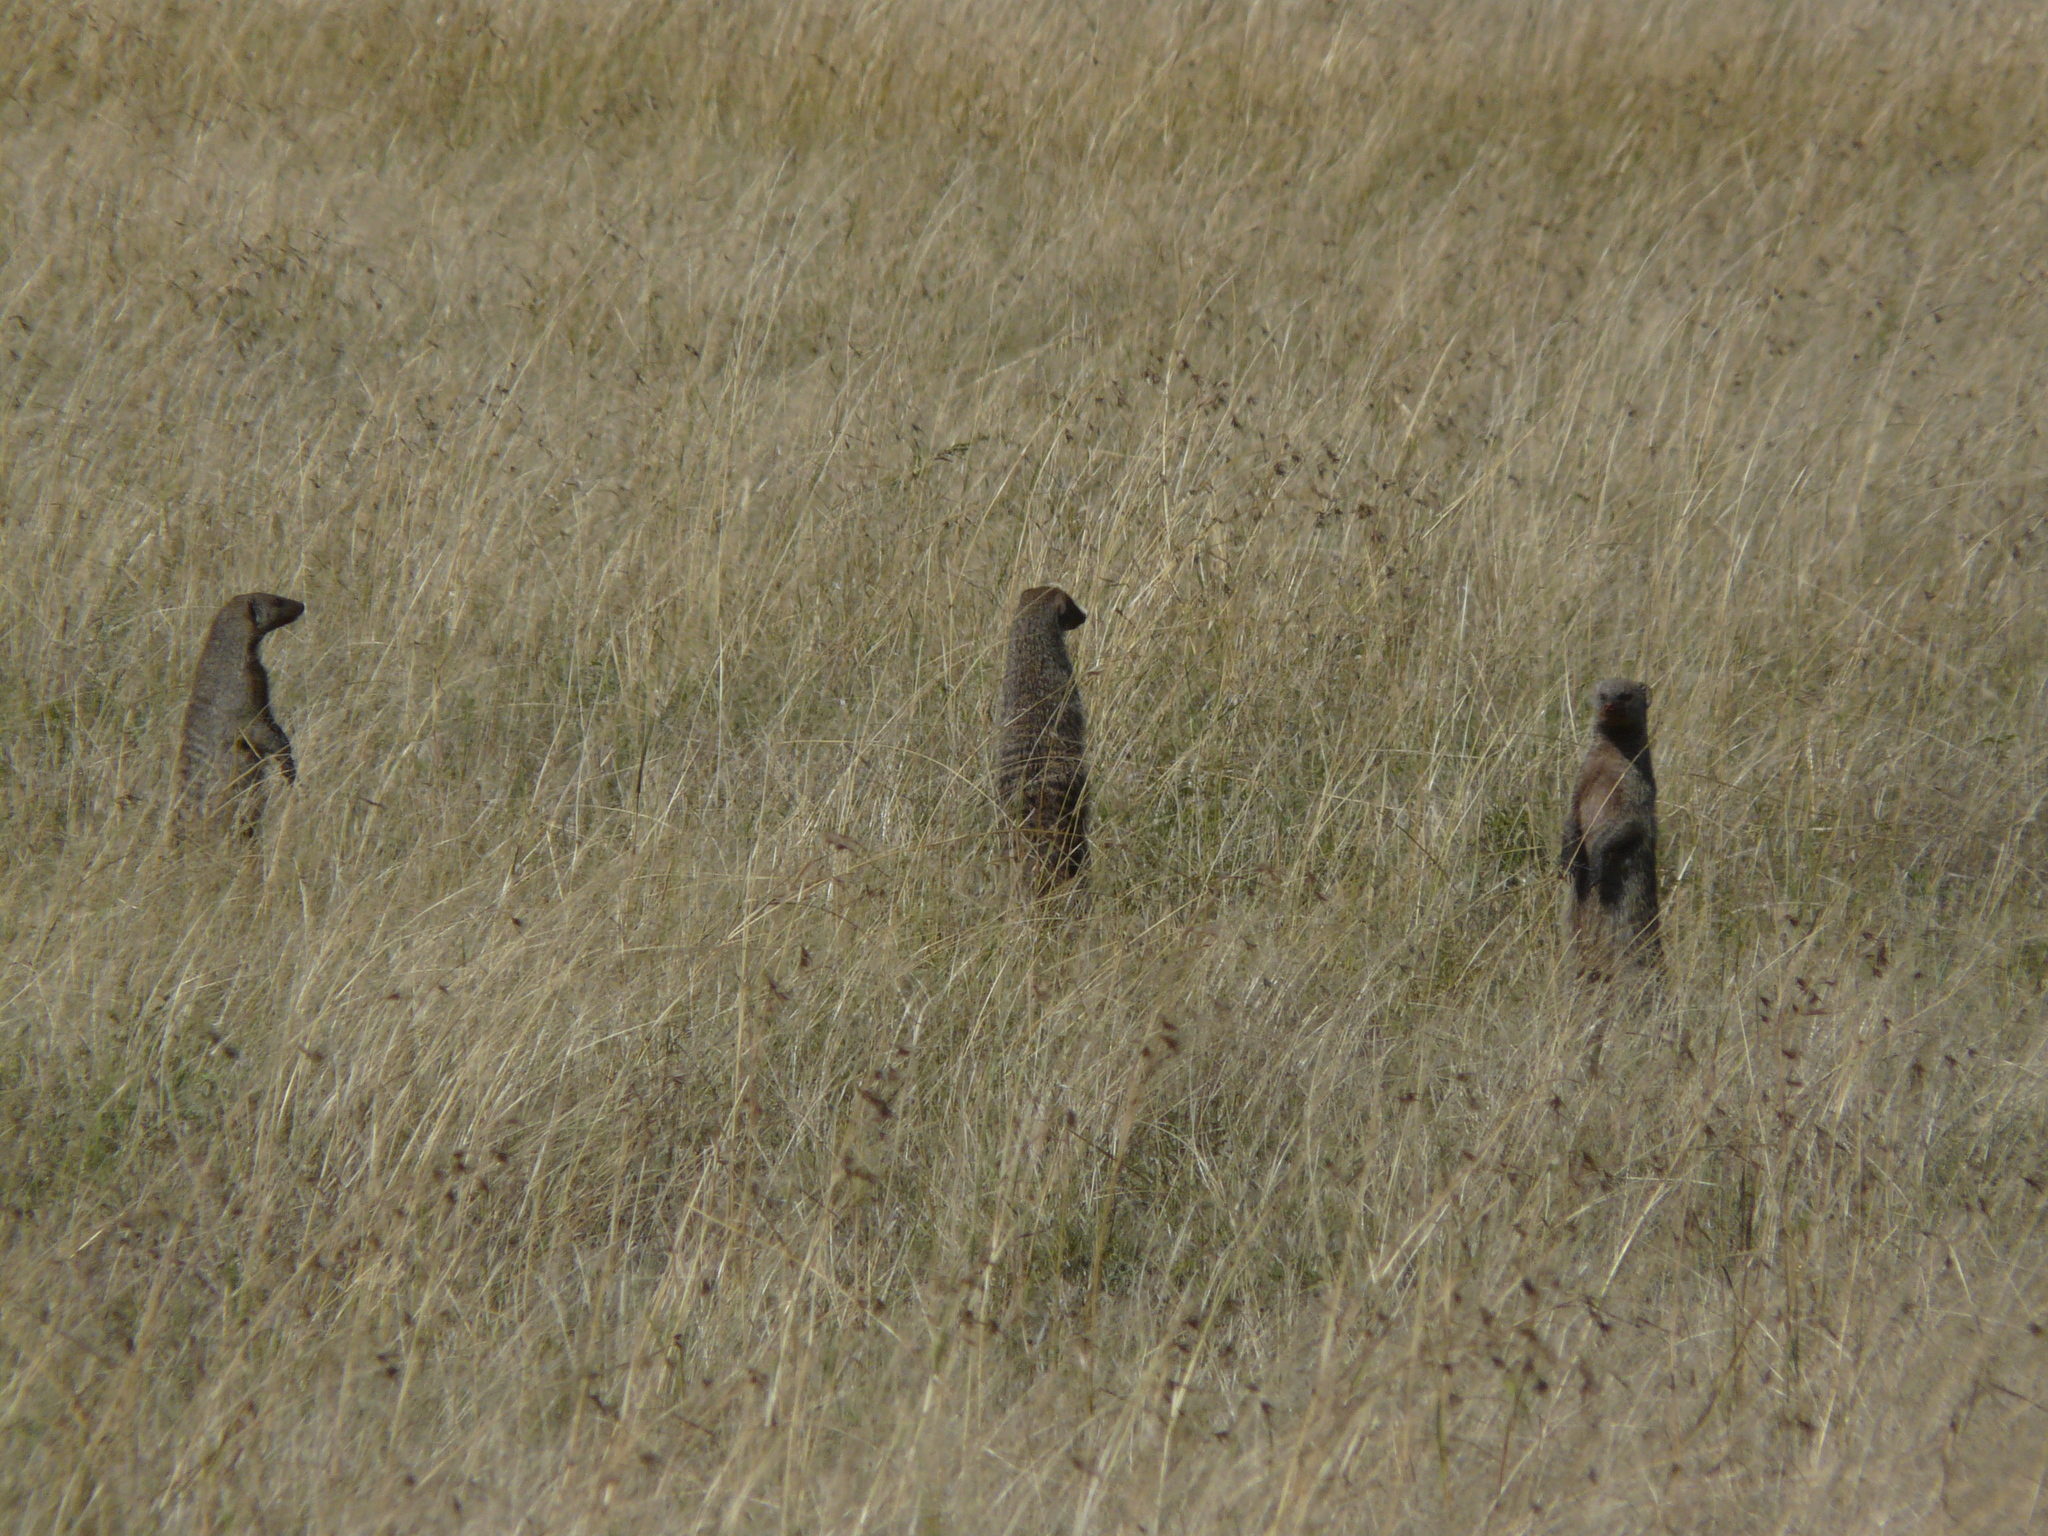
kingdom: Animalia
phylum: Chordata
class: Mammalia
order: Carnivora
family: Herpestidae
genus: Mungos
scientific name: Mungos mungo
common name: Banded mongoose
